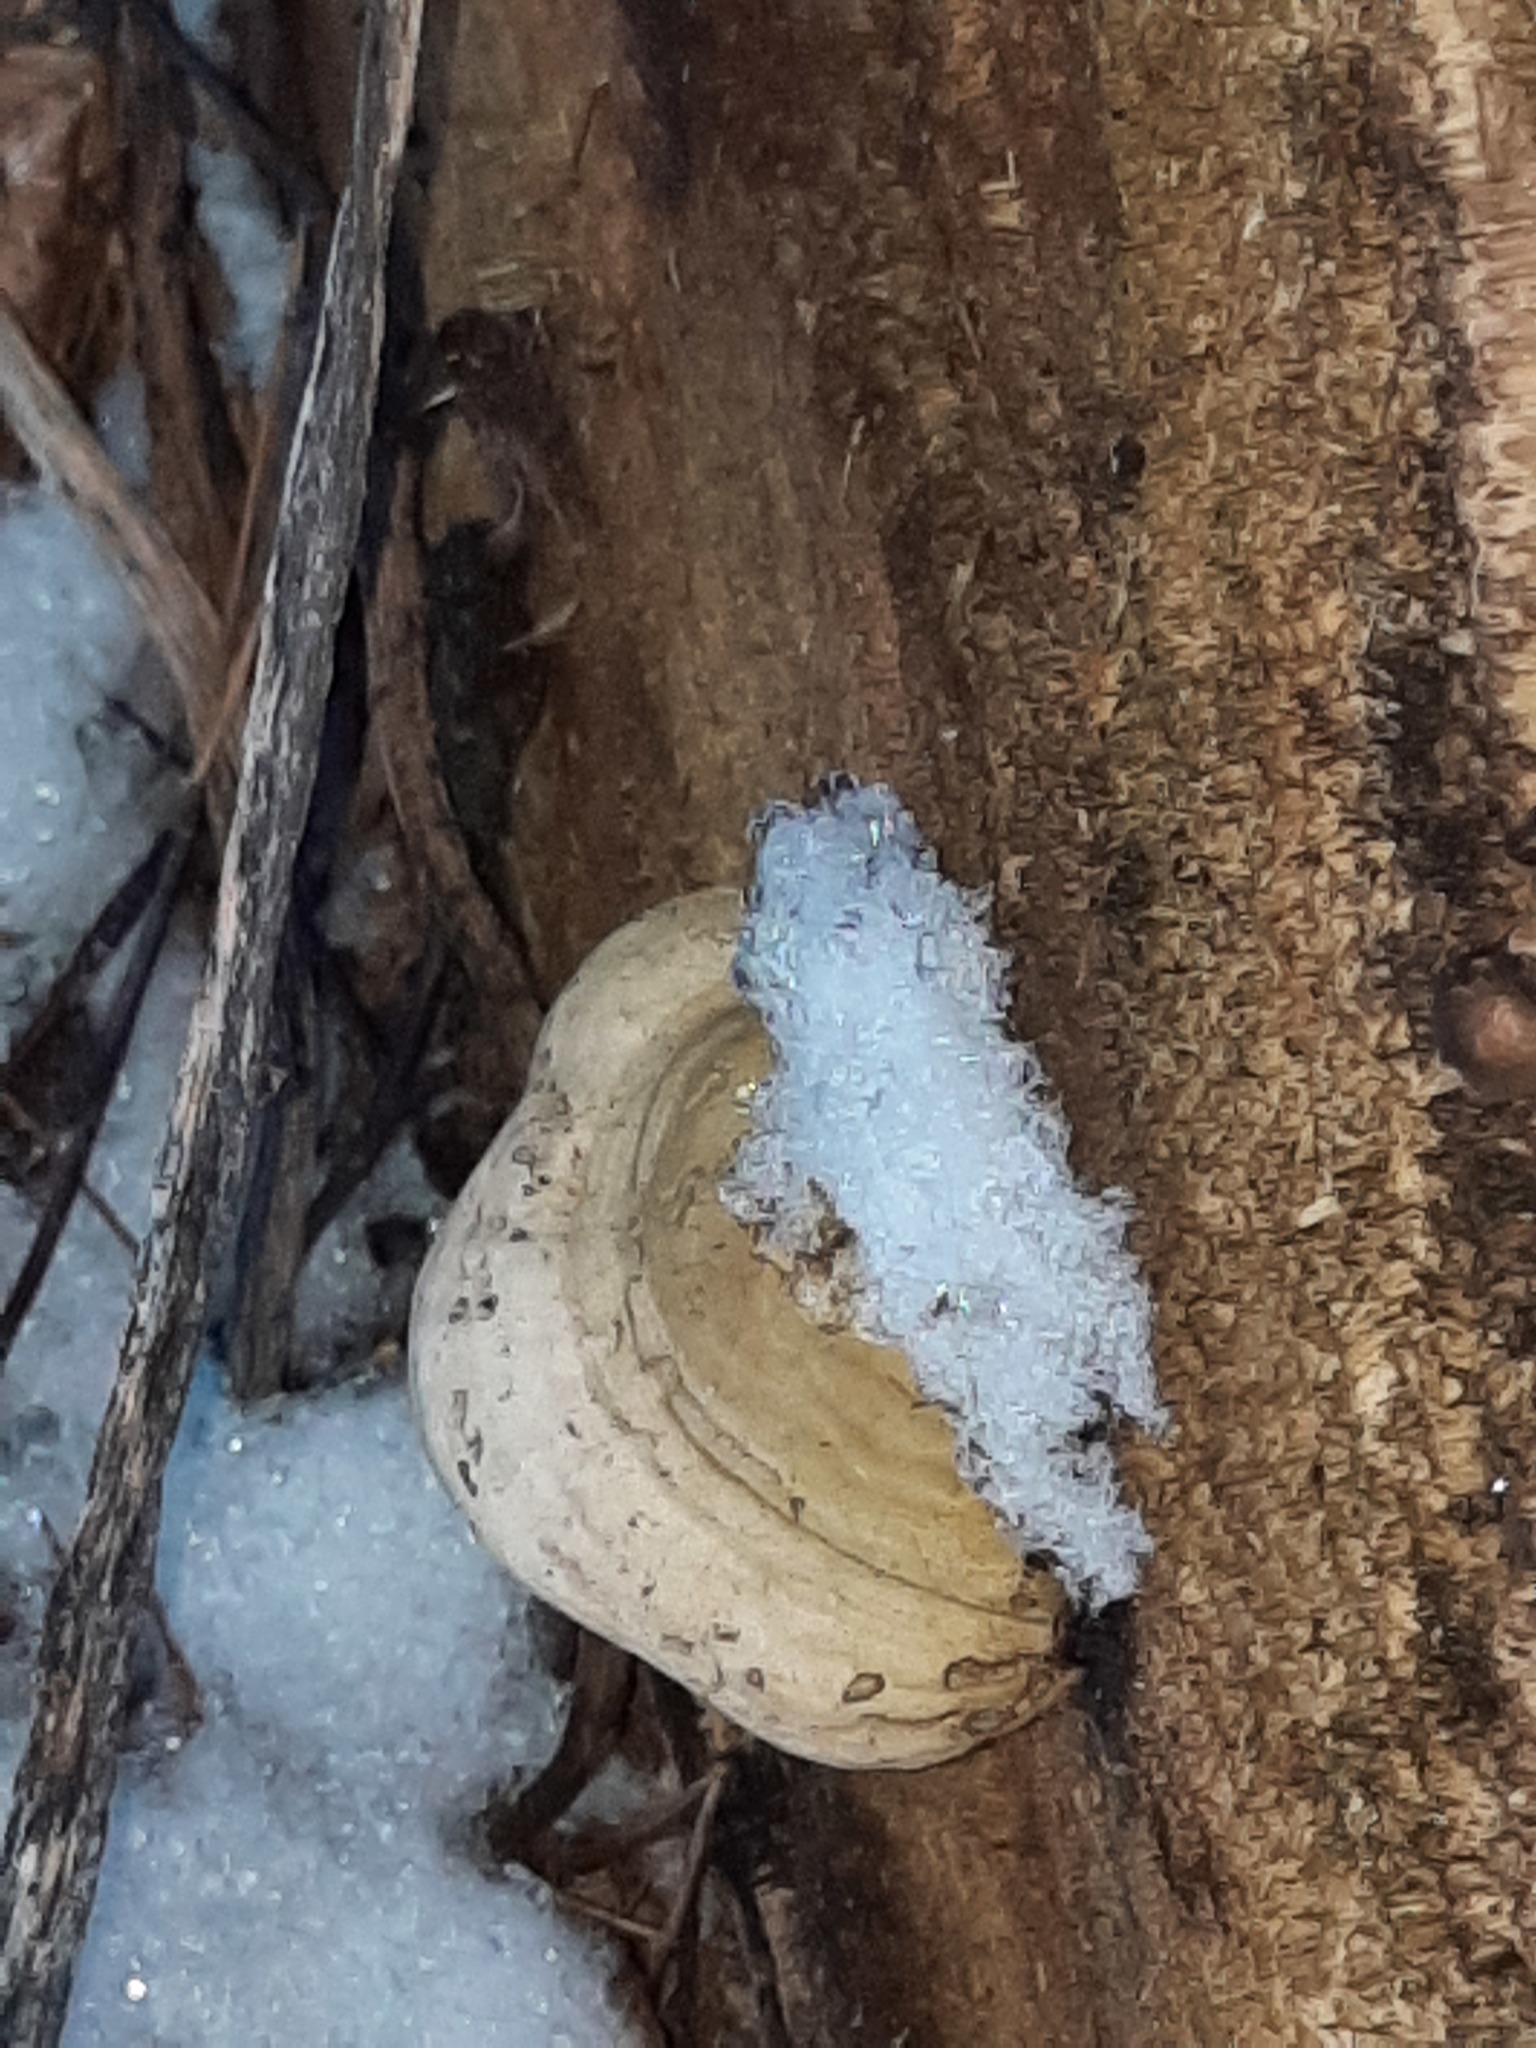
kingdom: Fungi
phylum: Basidiomycota
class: Agaricomycetes
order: Polyporales
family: Polyporaceae
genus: Fomes
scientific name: Fomes fomentarius
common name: Hoof fungus
